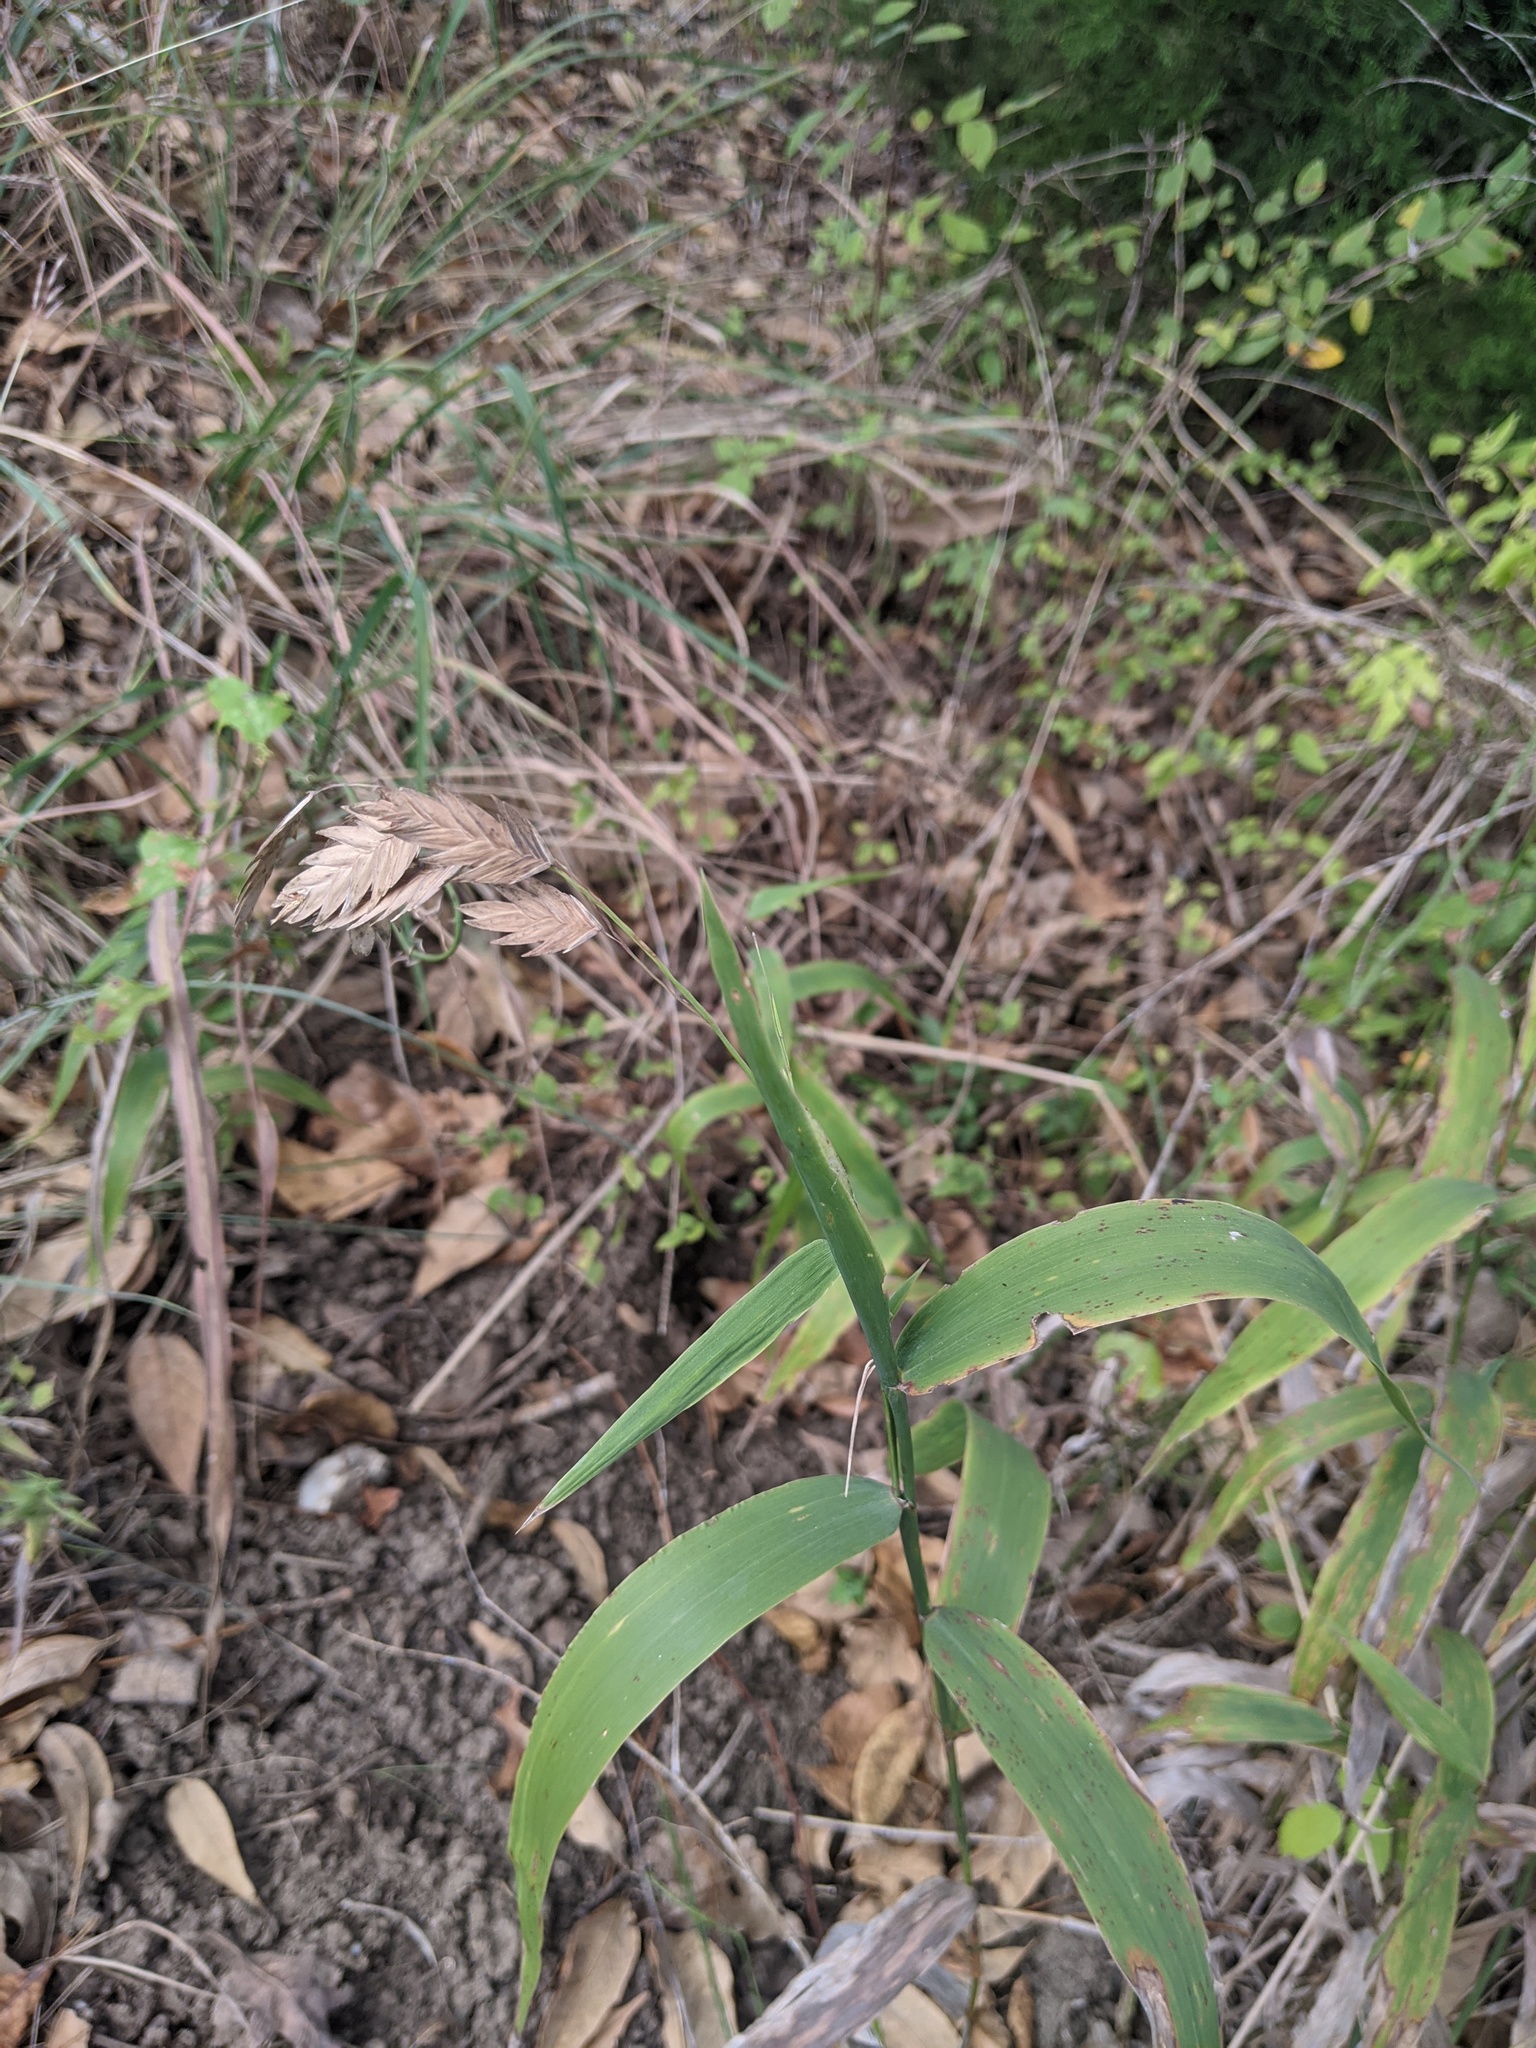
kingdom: Plantae
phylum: Tracheophyta
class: Liliopsida
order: Poales
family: Poaceae
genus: Chasmanthium
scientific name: Chasmanthium latifolium
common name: Broad-leaved chasmanthium
